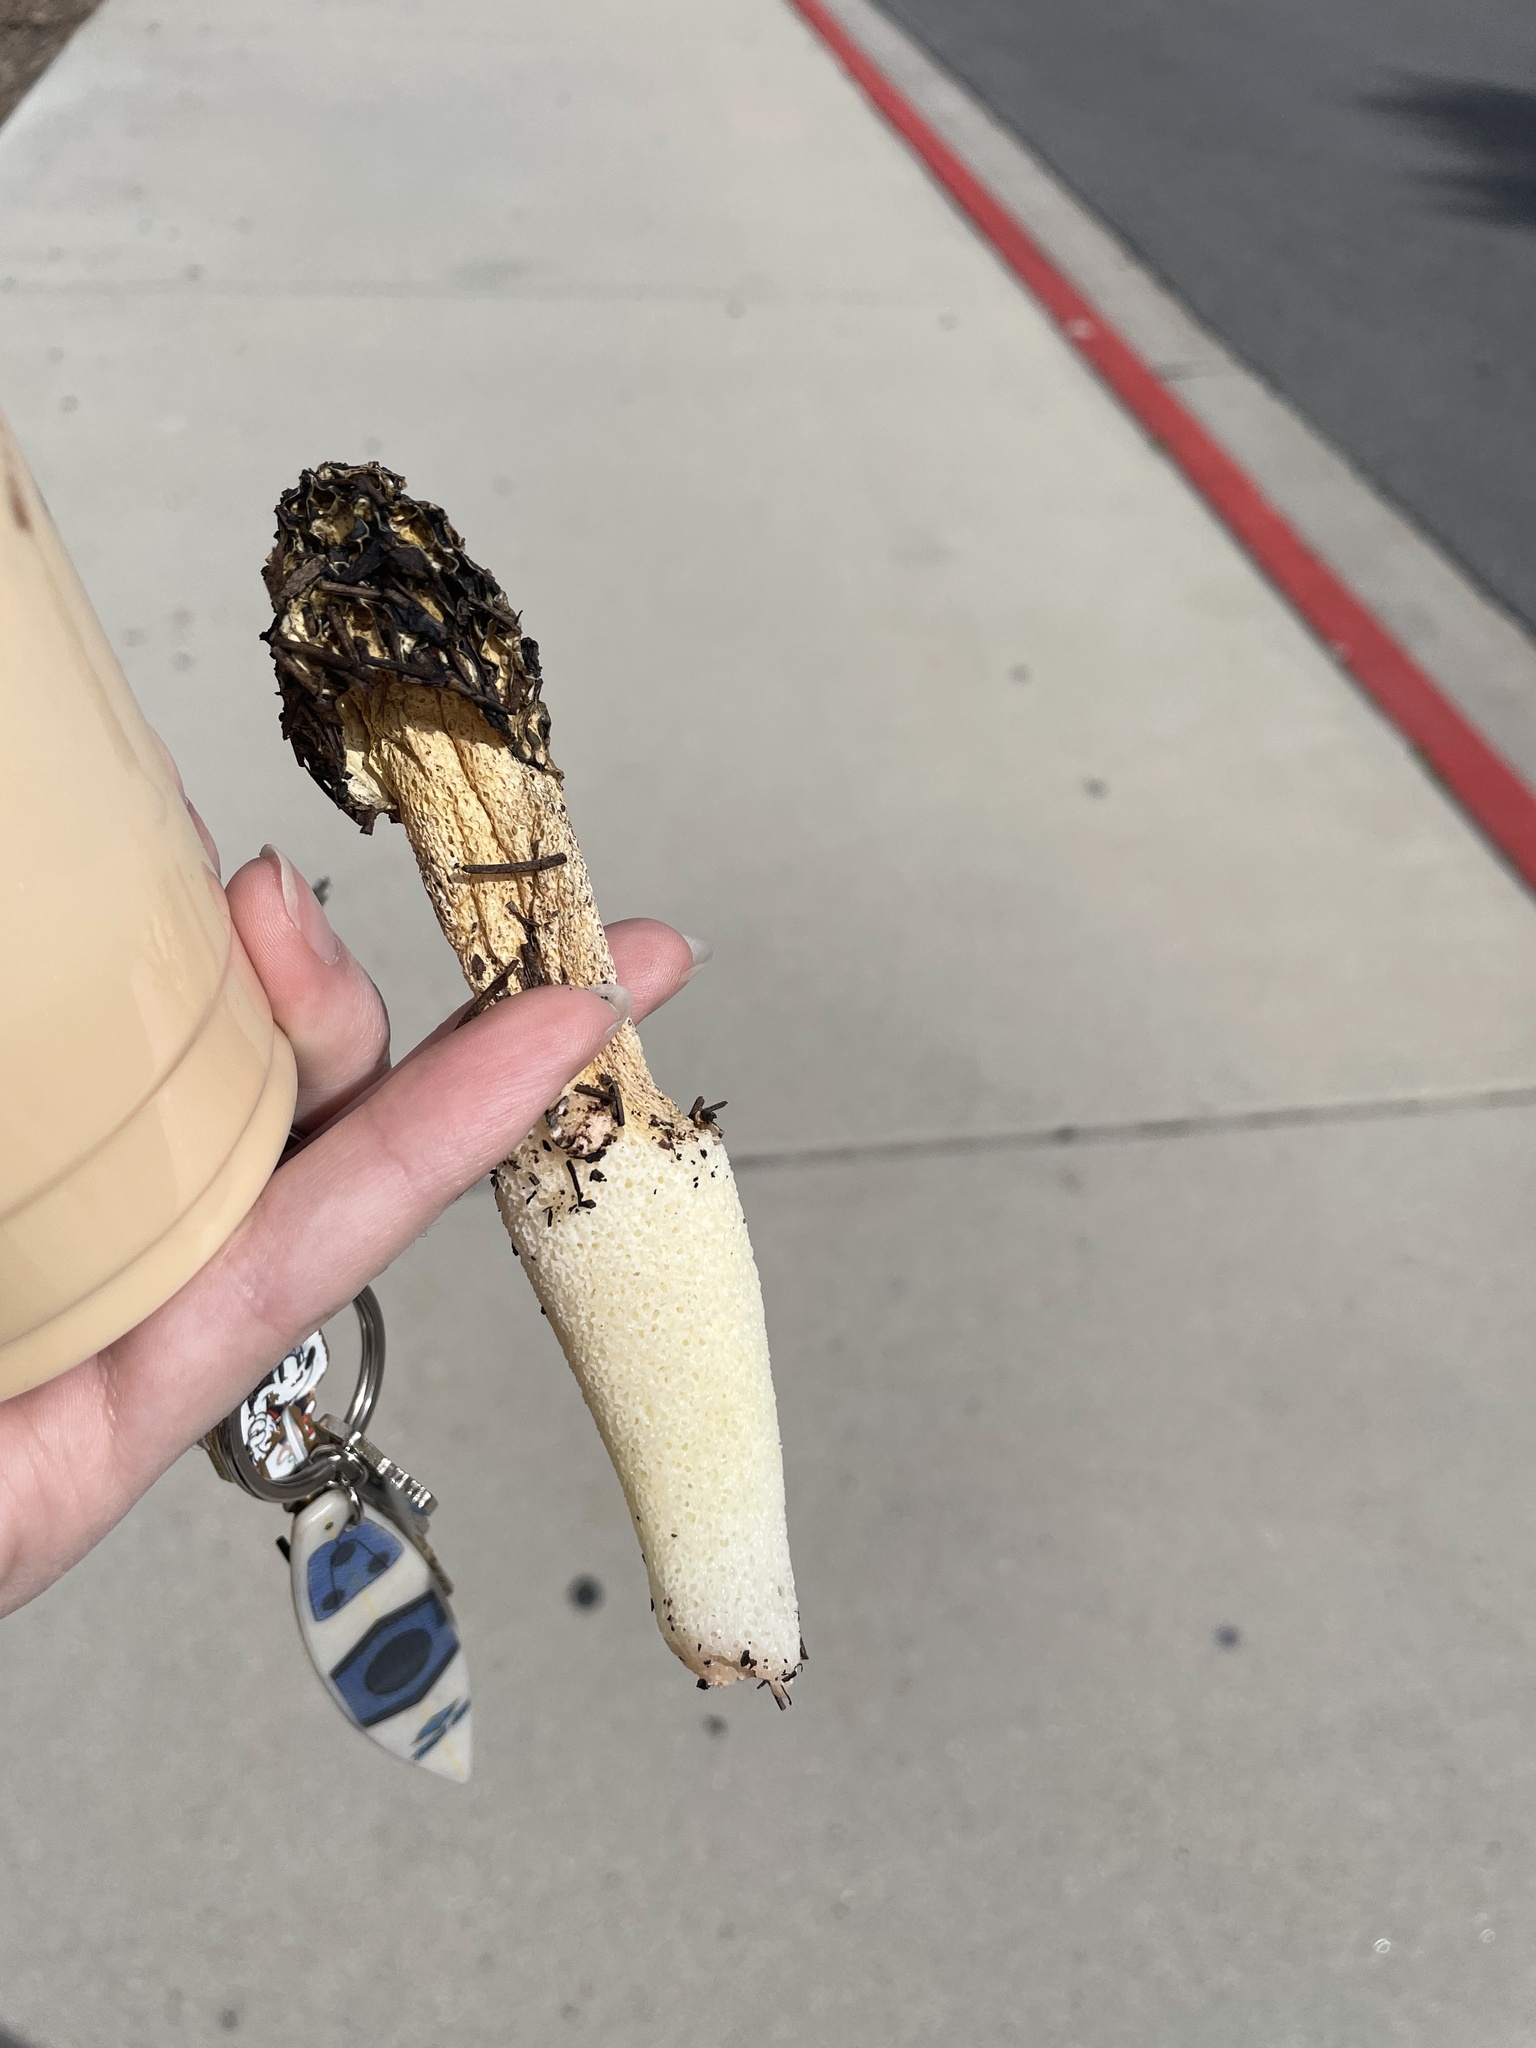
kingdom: Fungi
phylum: Basidiomycota
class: Agaricomycetes
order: Phallales
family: Phallaceae
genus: Phallus
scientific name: Phallus hadriani
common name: Sand stinkhorn
